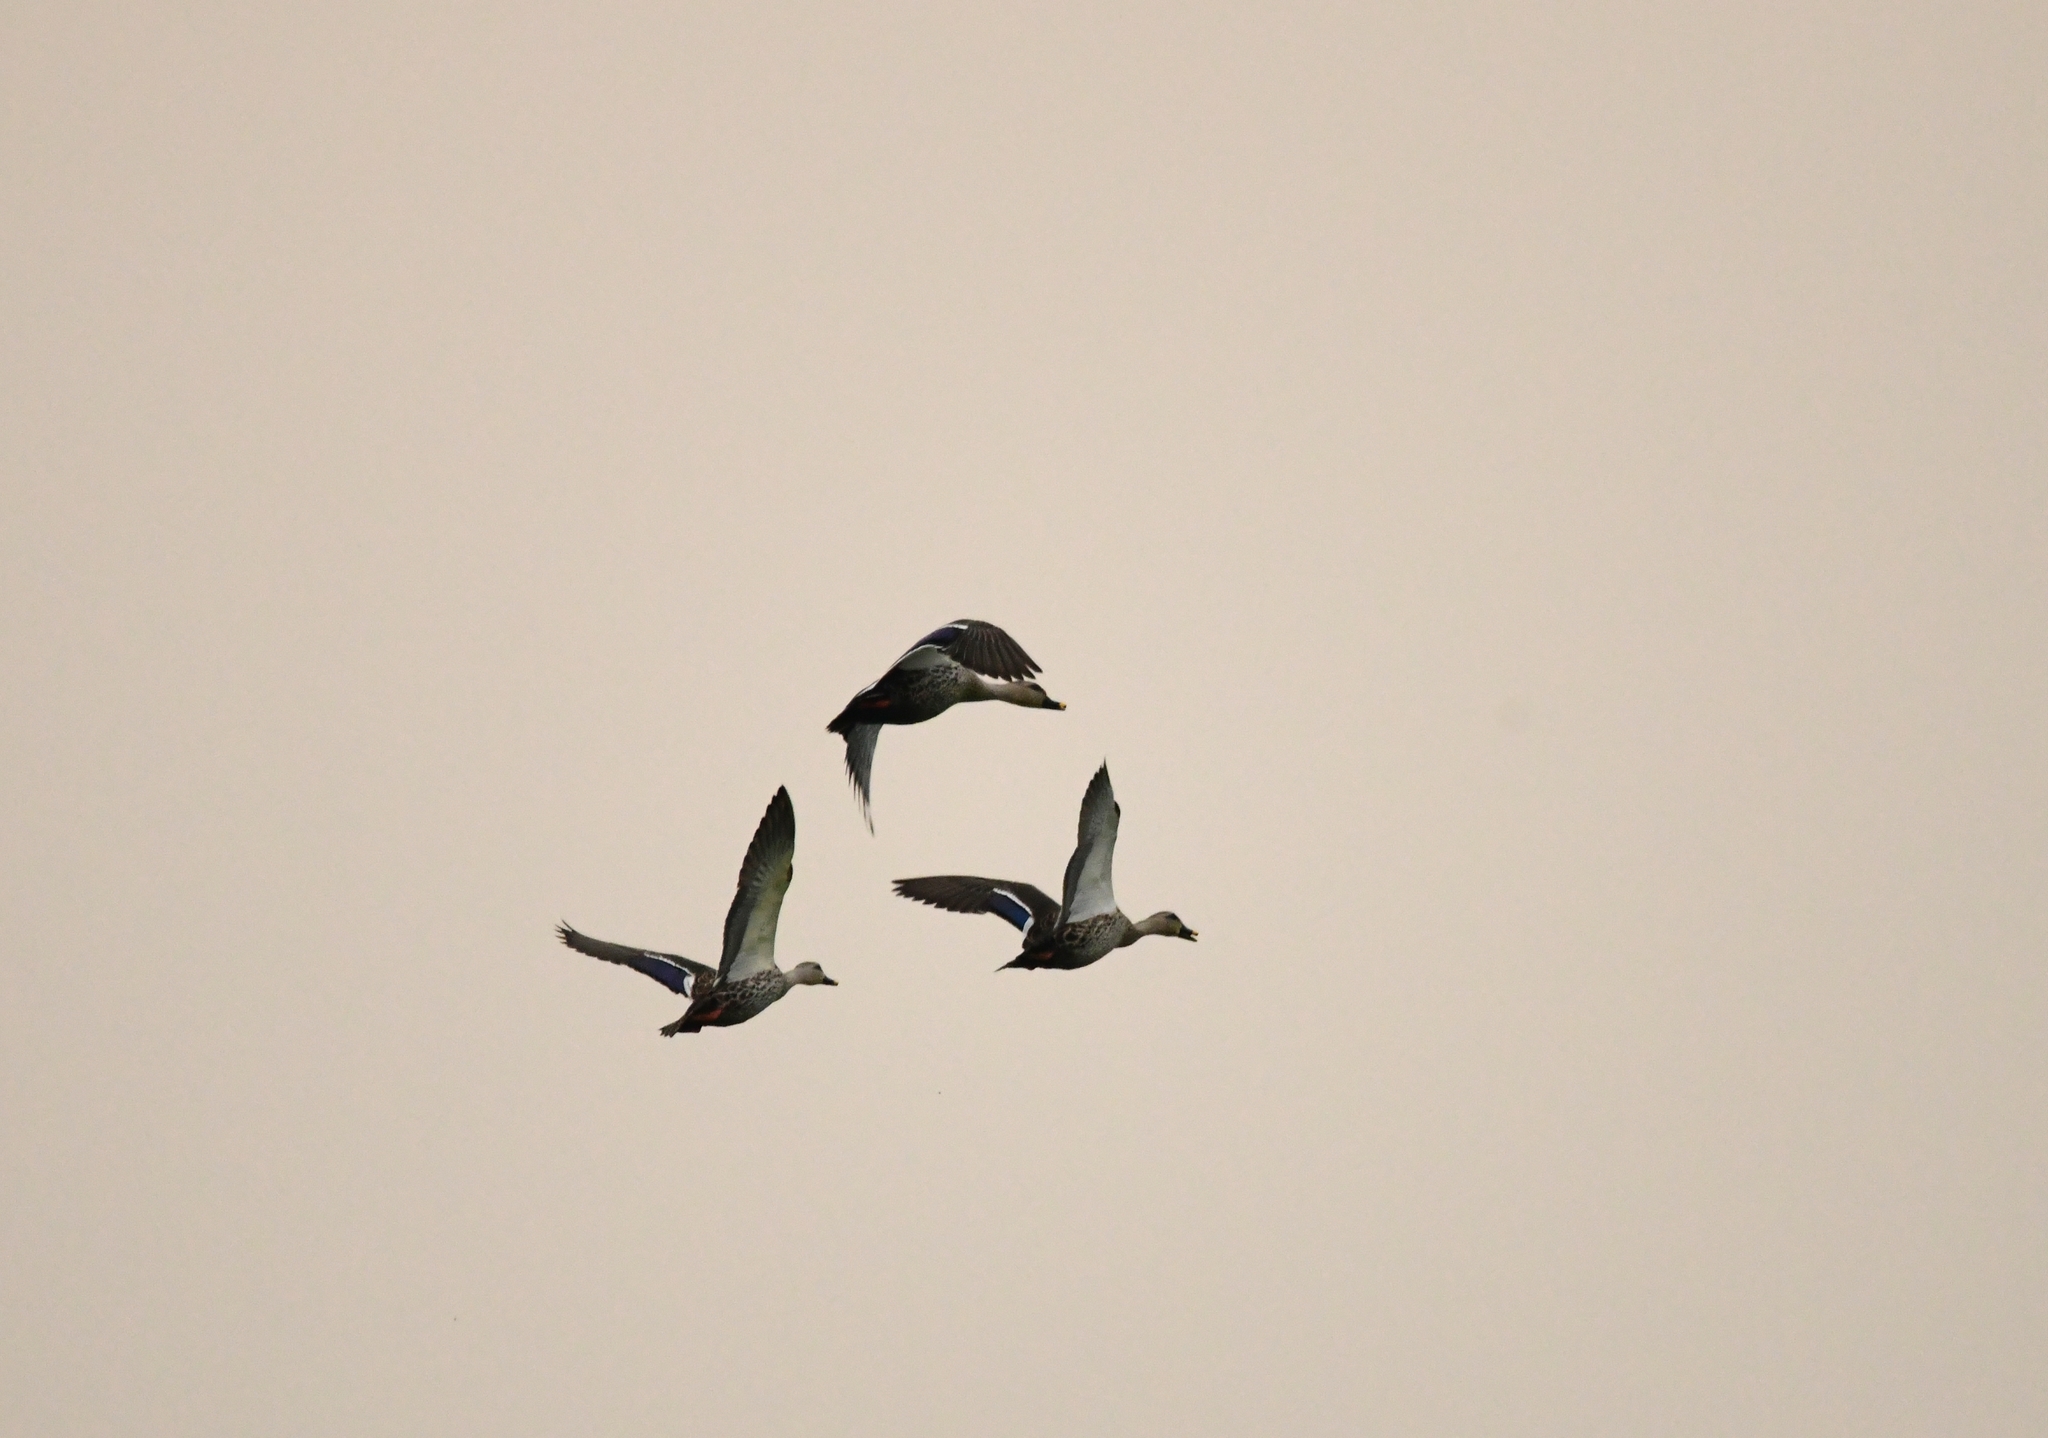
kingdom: Animalia
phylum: Chordata
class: Aves
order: Anseriformes
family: Anatidae
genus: Anas
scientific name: Anas poecilorhyncha
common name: Indian spot-billed duck
